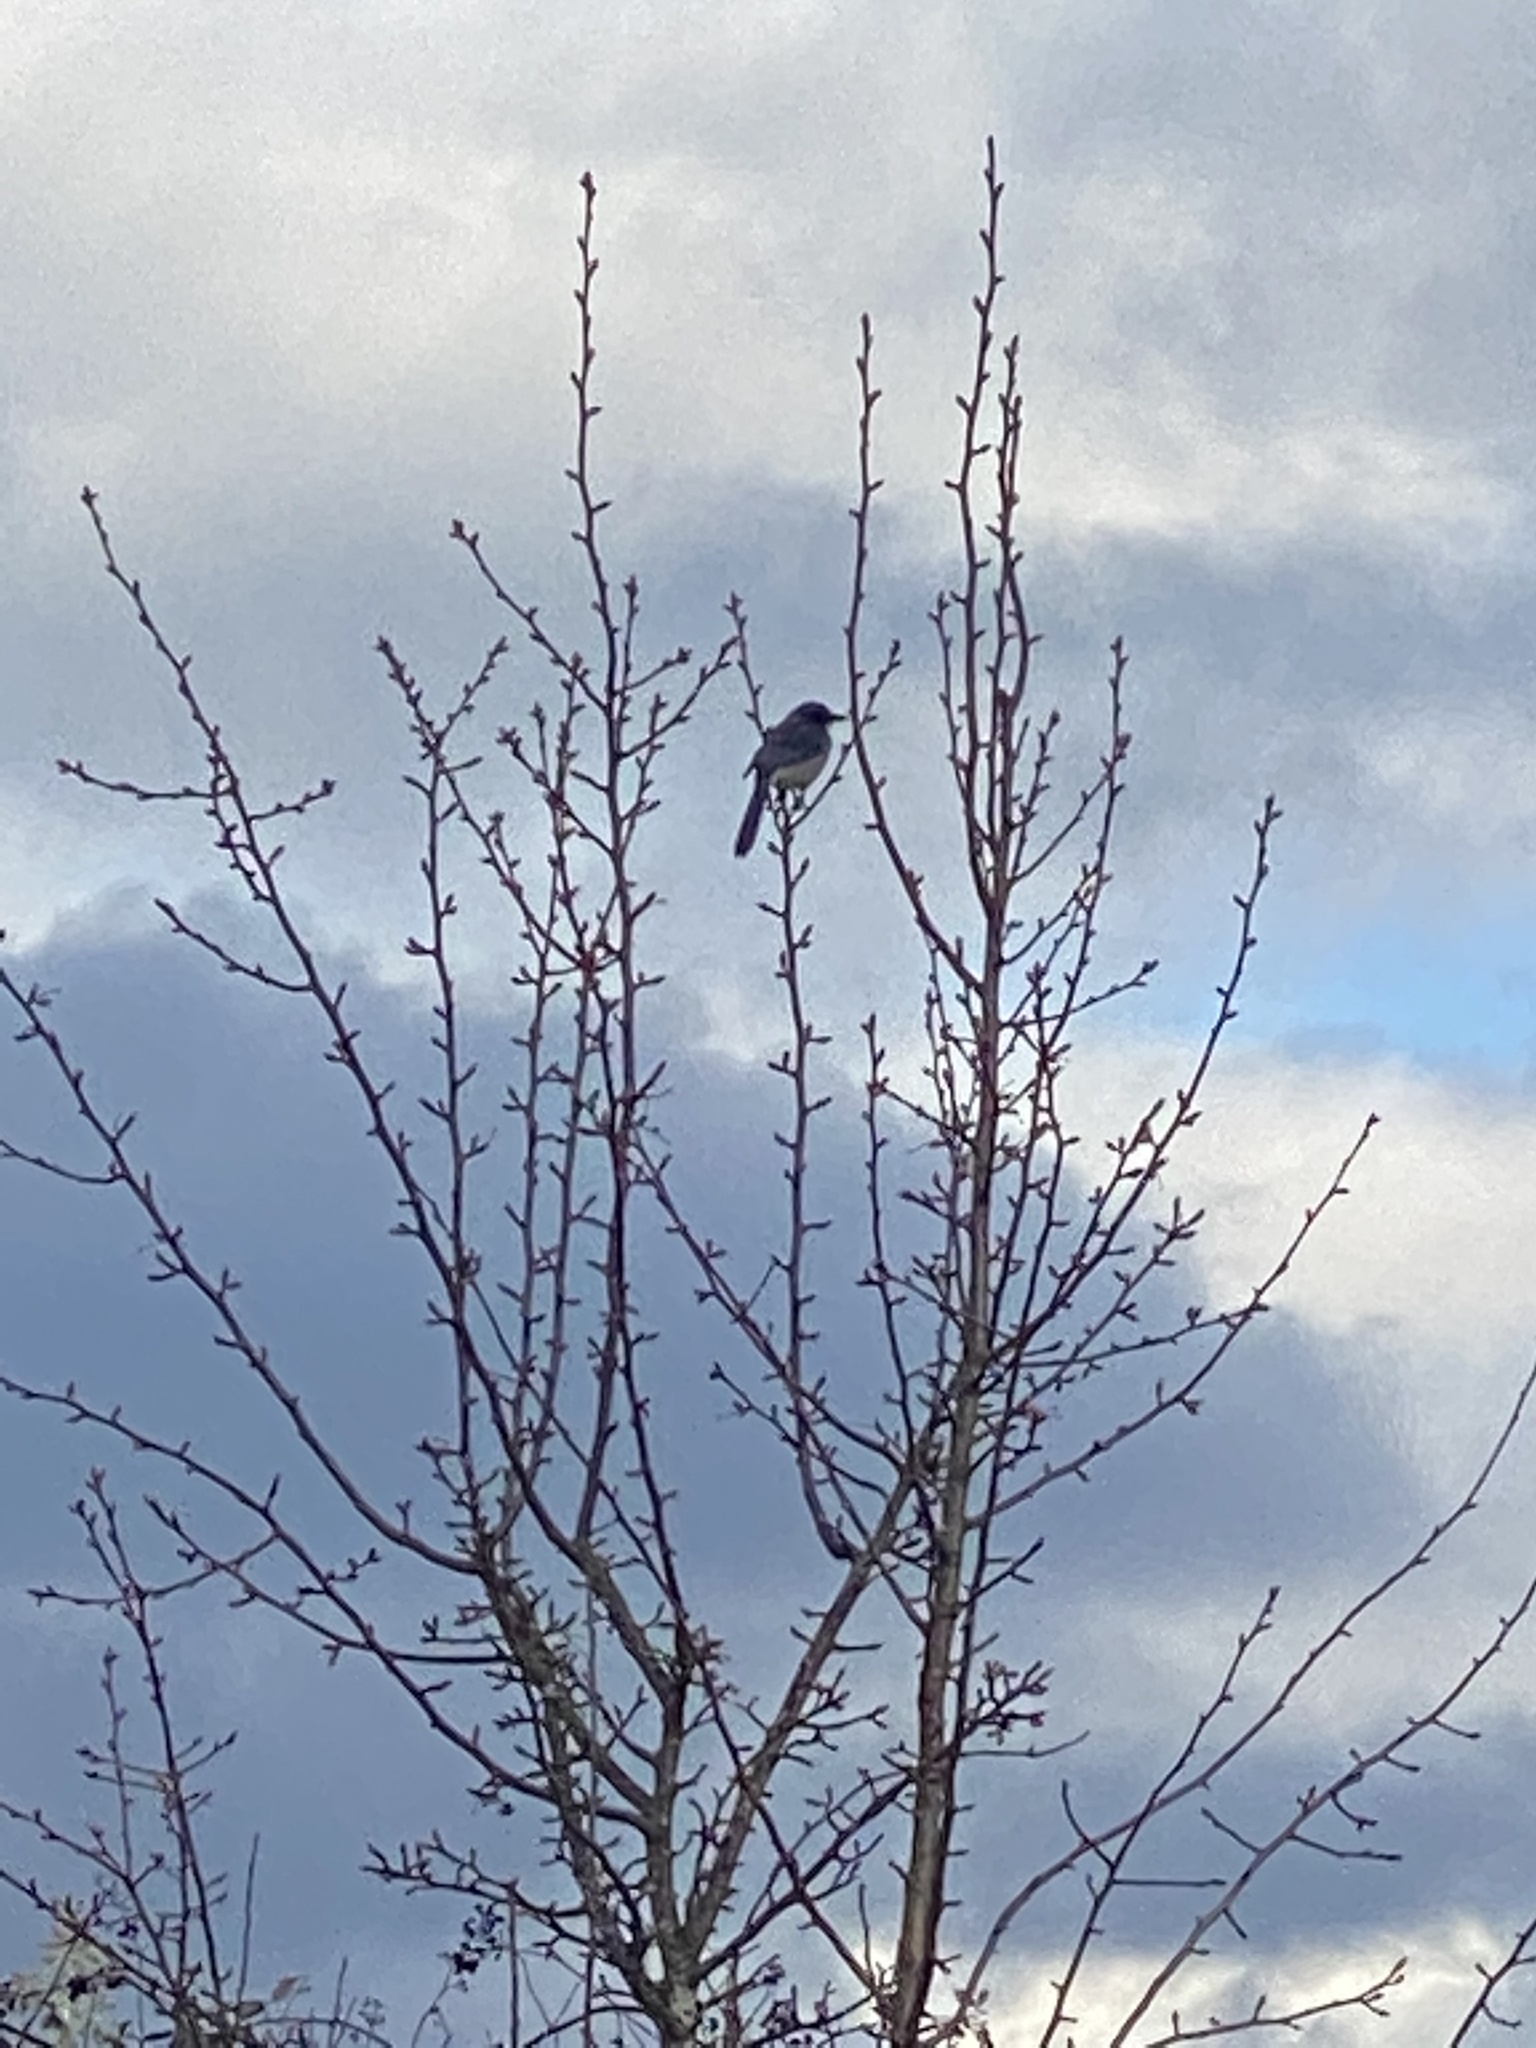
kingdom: Animalia
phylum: Chordata
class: Aves
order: Passeriformes
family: Corvidae
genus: Aphelocoma
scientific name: Aphelocoma californica
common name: California scrub-jay
